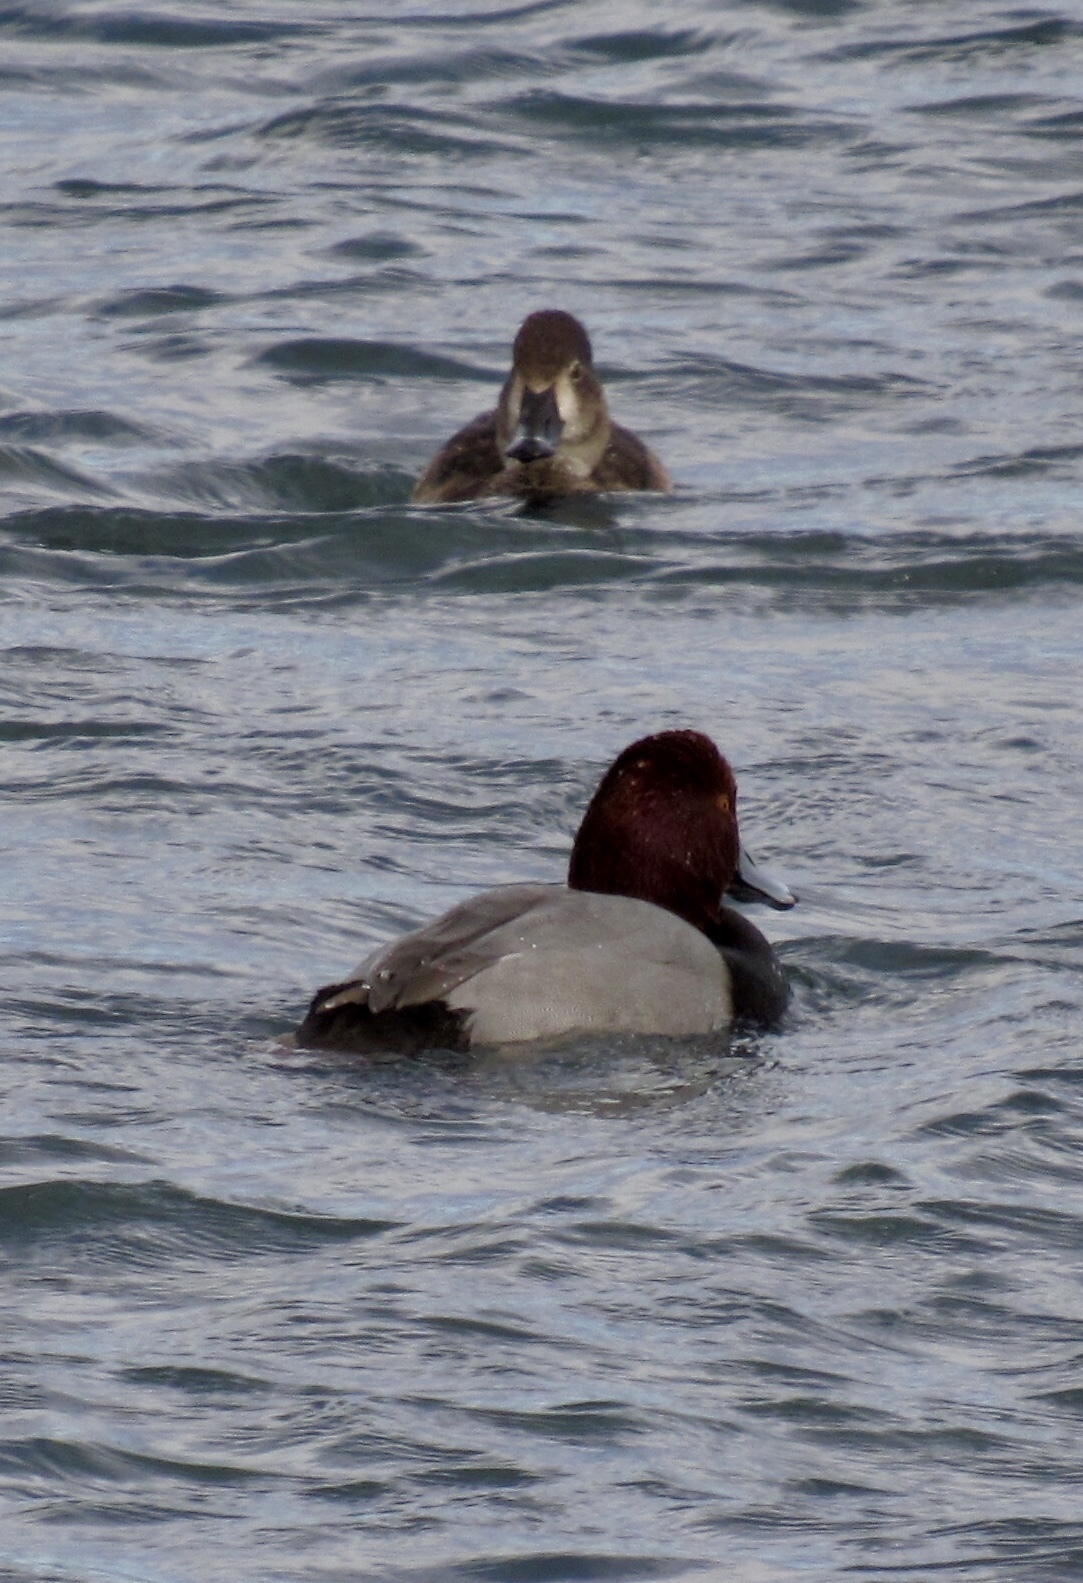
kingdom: Animalia
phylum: Chordata
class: Aves
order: Anseriformes
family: Anatidae
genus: Aythya
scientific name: Aythya americana
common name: Redhead
